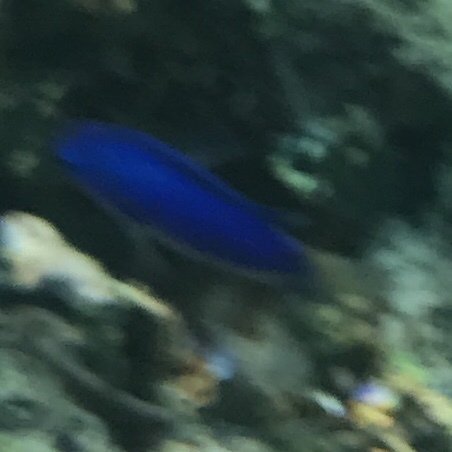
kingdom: Animalia
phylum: Chordata
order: Perciformes
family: Pomacentridae
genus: Pomacentrus
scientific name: Pomacentrus coelestis
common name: Neon damsel
